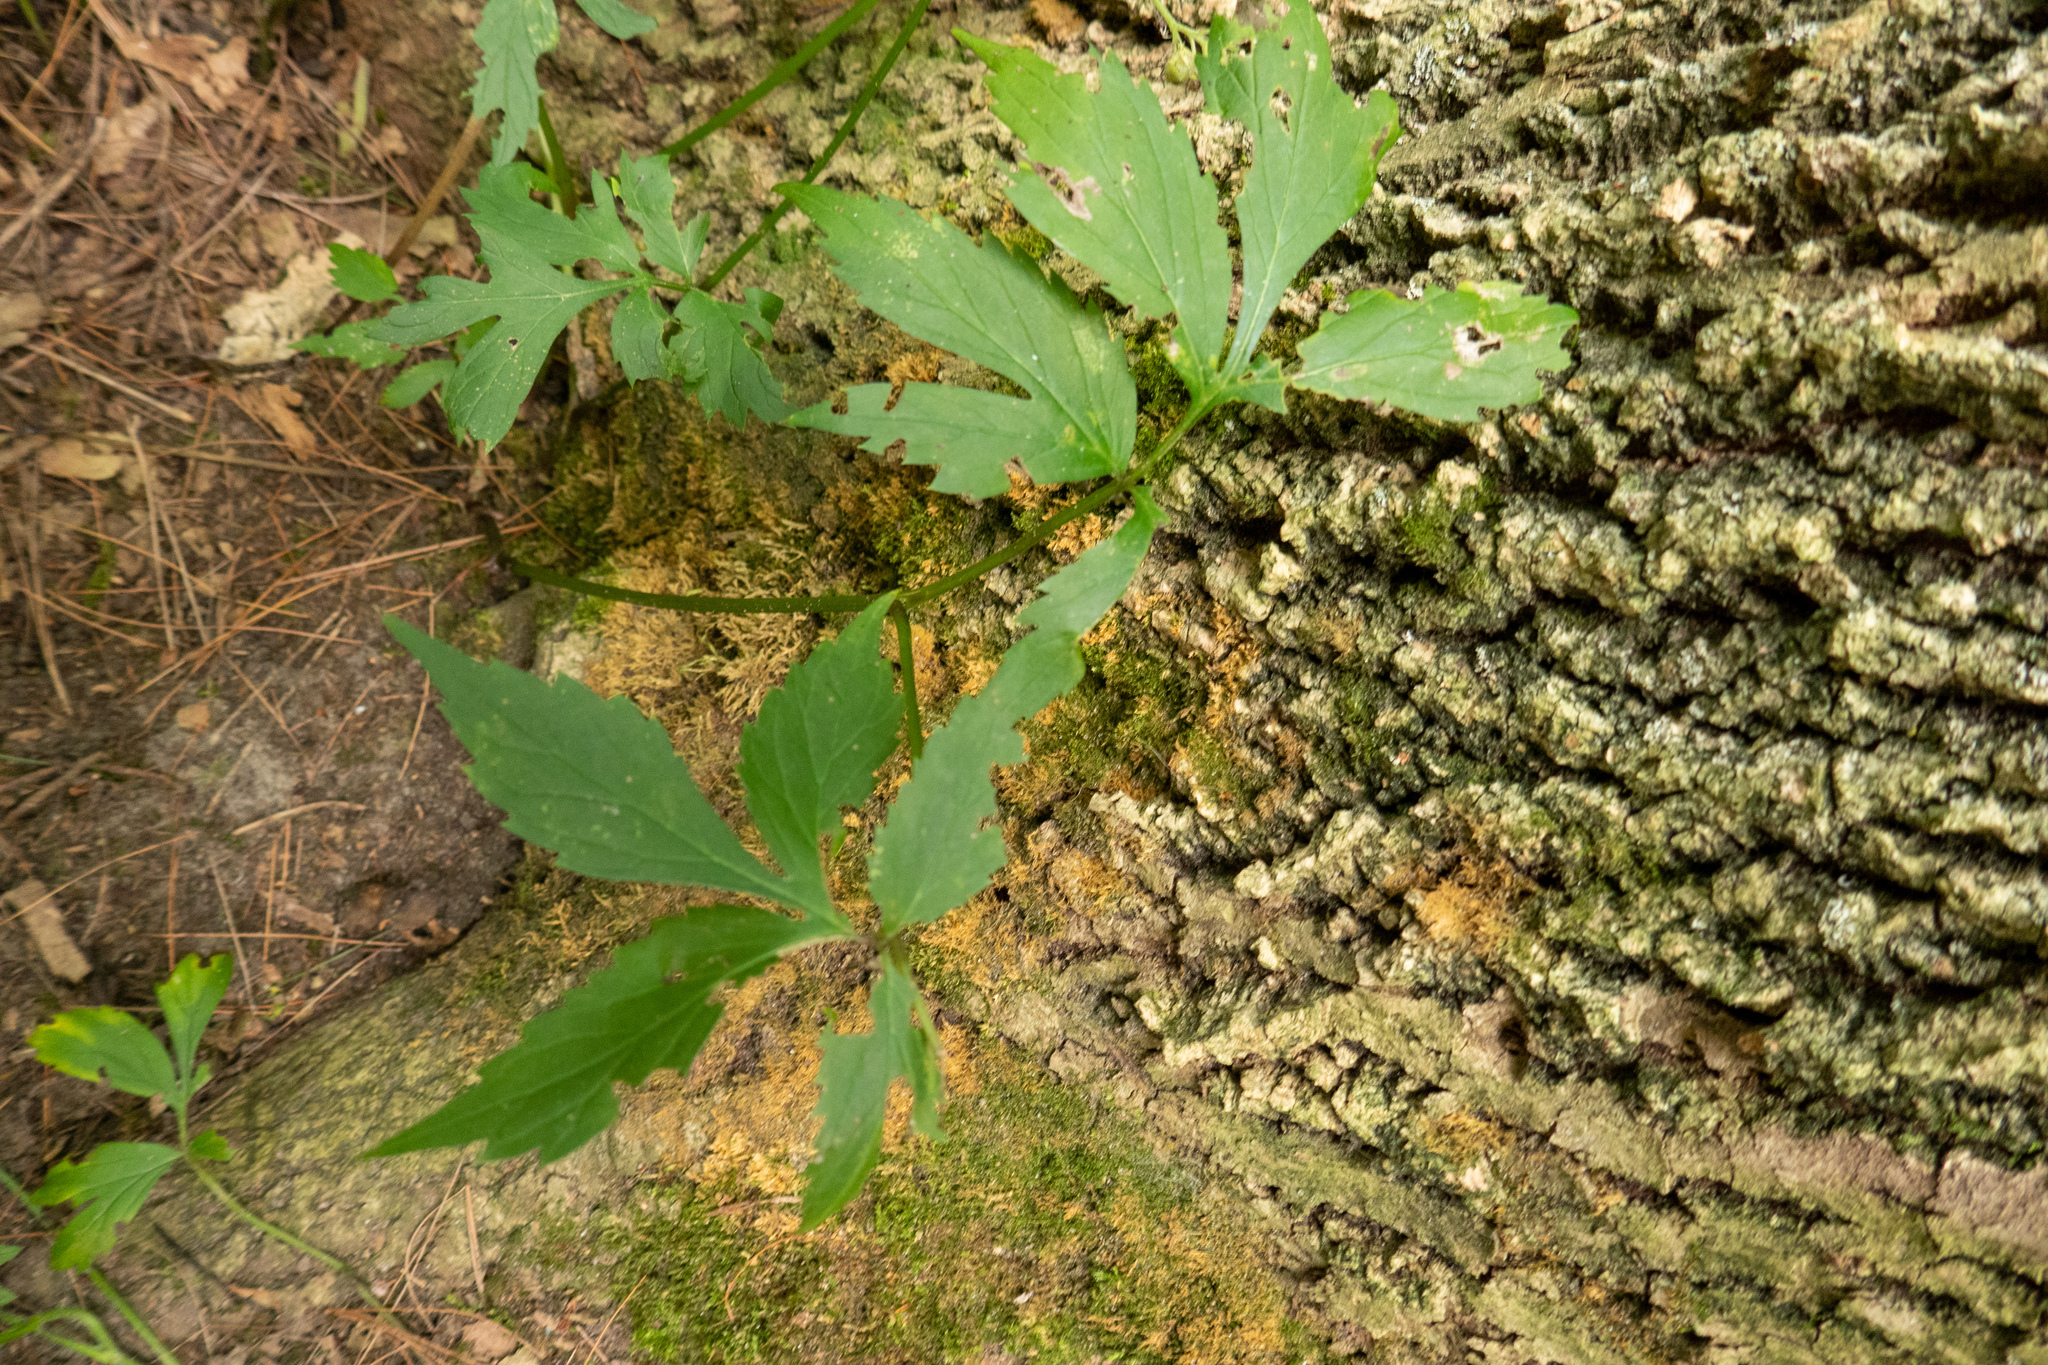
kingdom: Plantae
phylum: Tracheophyta
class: Magnoliopsida
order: Boraginales
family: Hydrophyllaceae
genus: Hydrophyllum
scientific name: Hydrophyllum virginianum
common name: Virginia waterleaf
